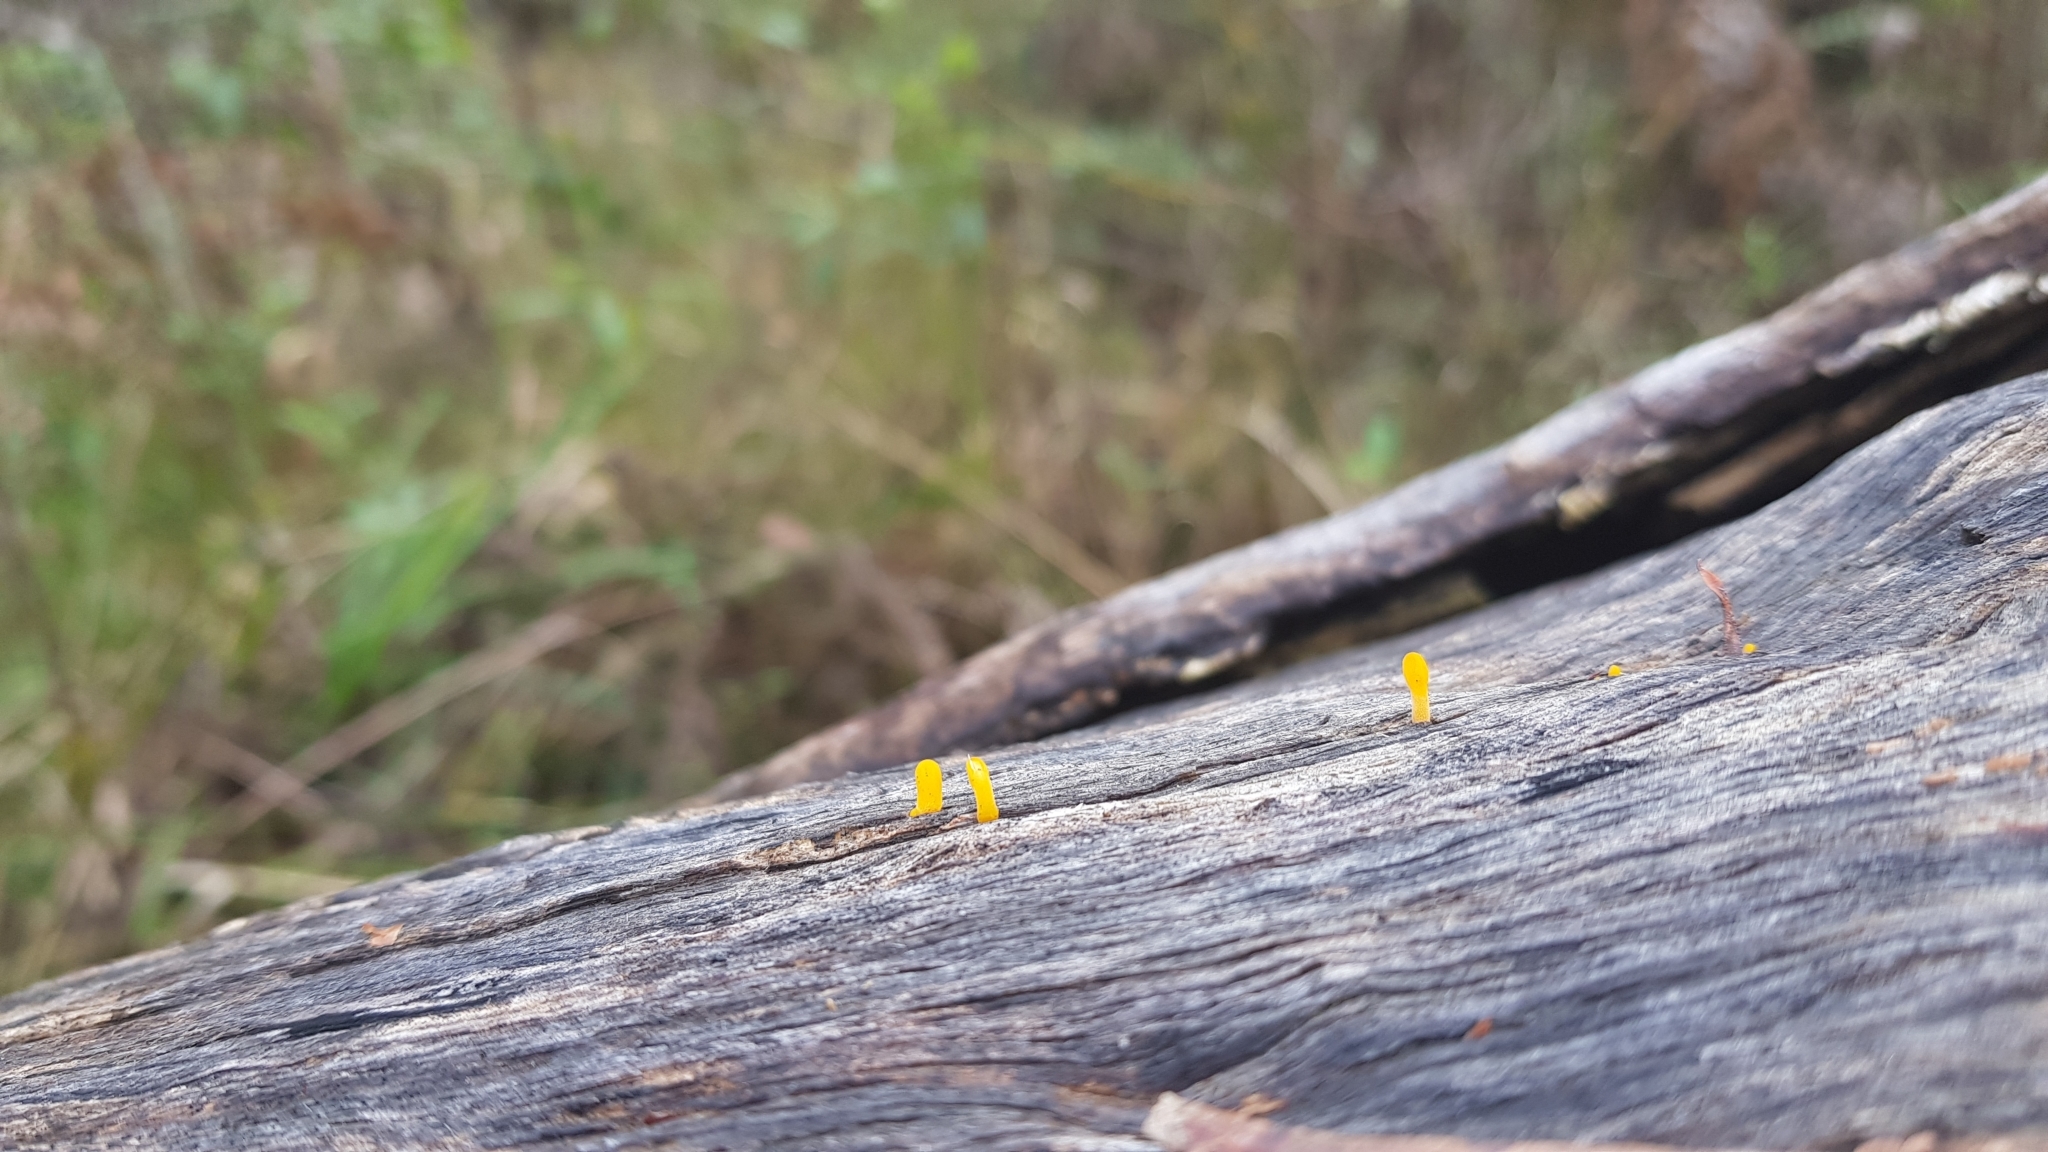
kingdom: Fungi
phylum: Basidiomycota
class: Dacrymycetes
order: Dacrymycetales
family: Dacrymycetaceae
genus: Calocera
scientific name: Calocera australis
